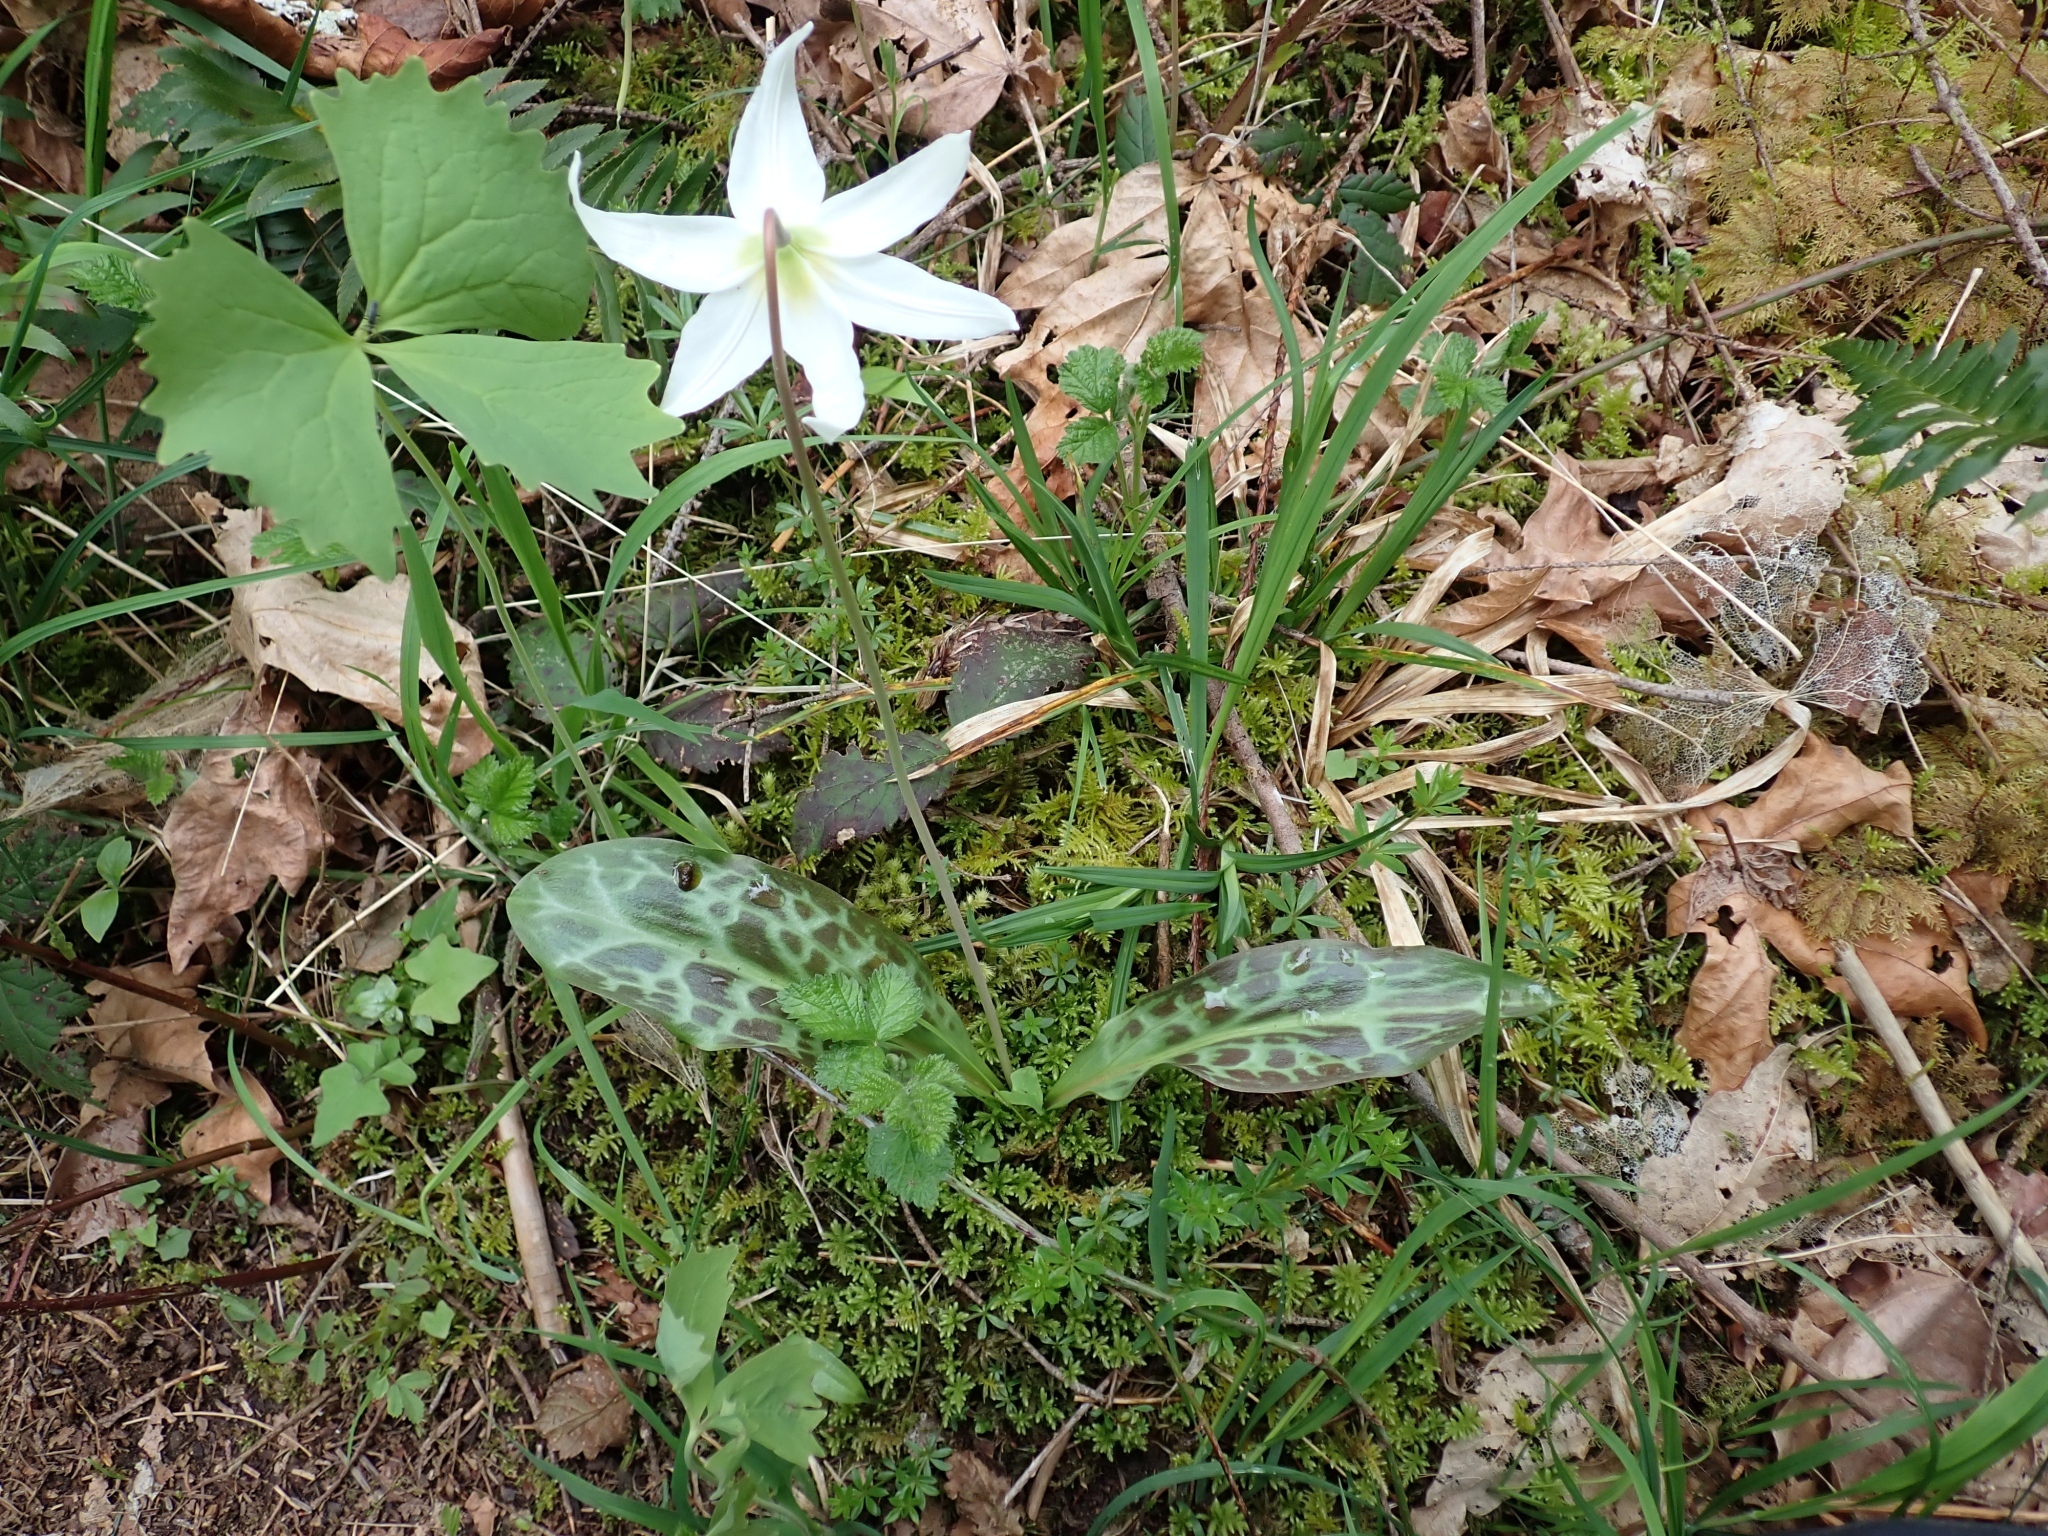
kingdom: Plantae
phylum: Tracheophyta
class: Liliopsida
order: Liliales
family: Liliaceae
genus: Erythronium
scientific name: Erythronium oregonum
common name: Giant adder's-tongue
